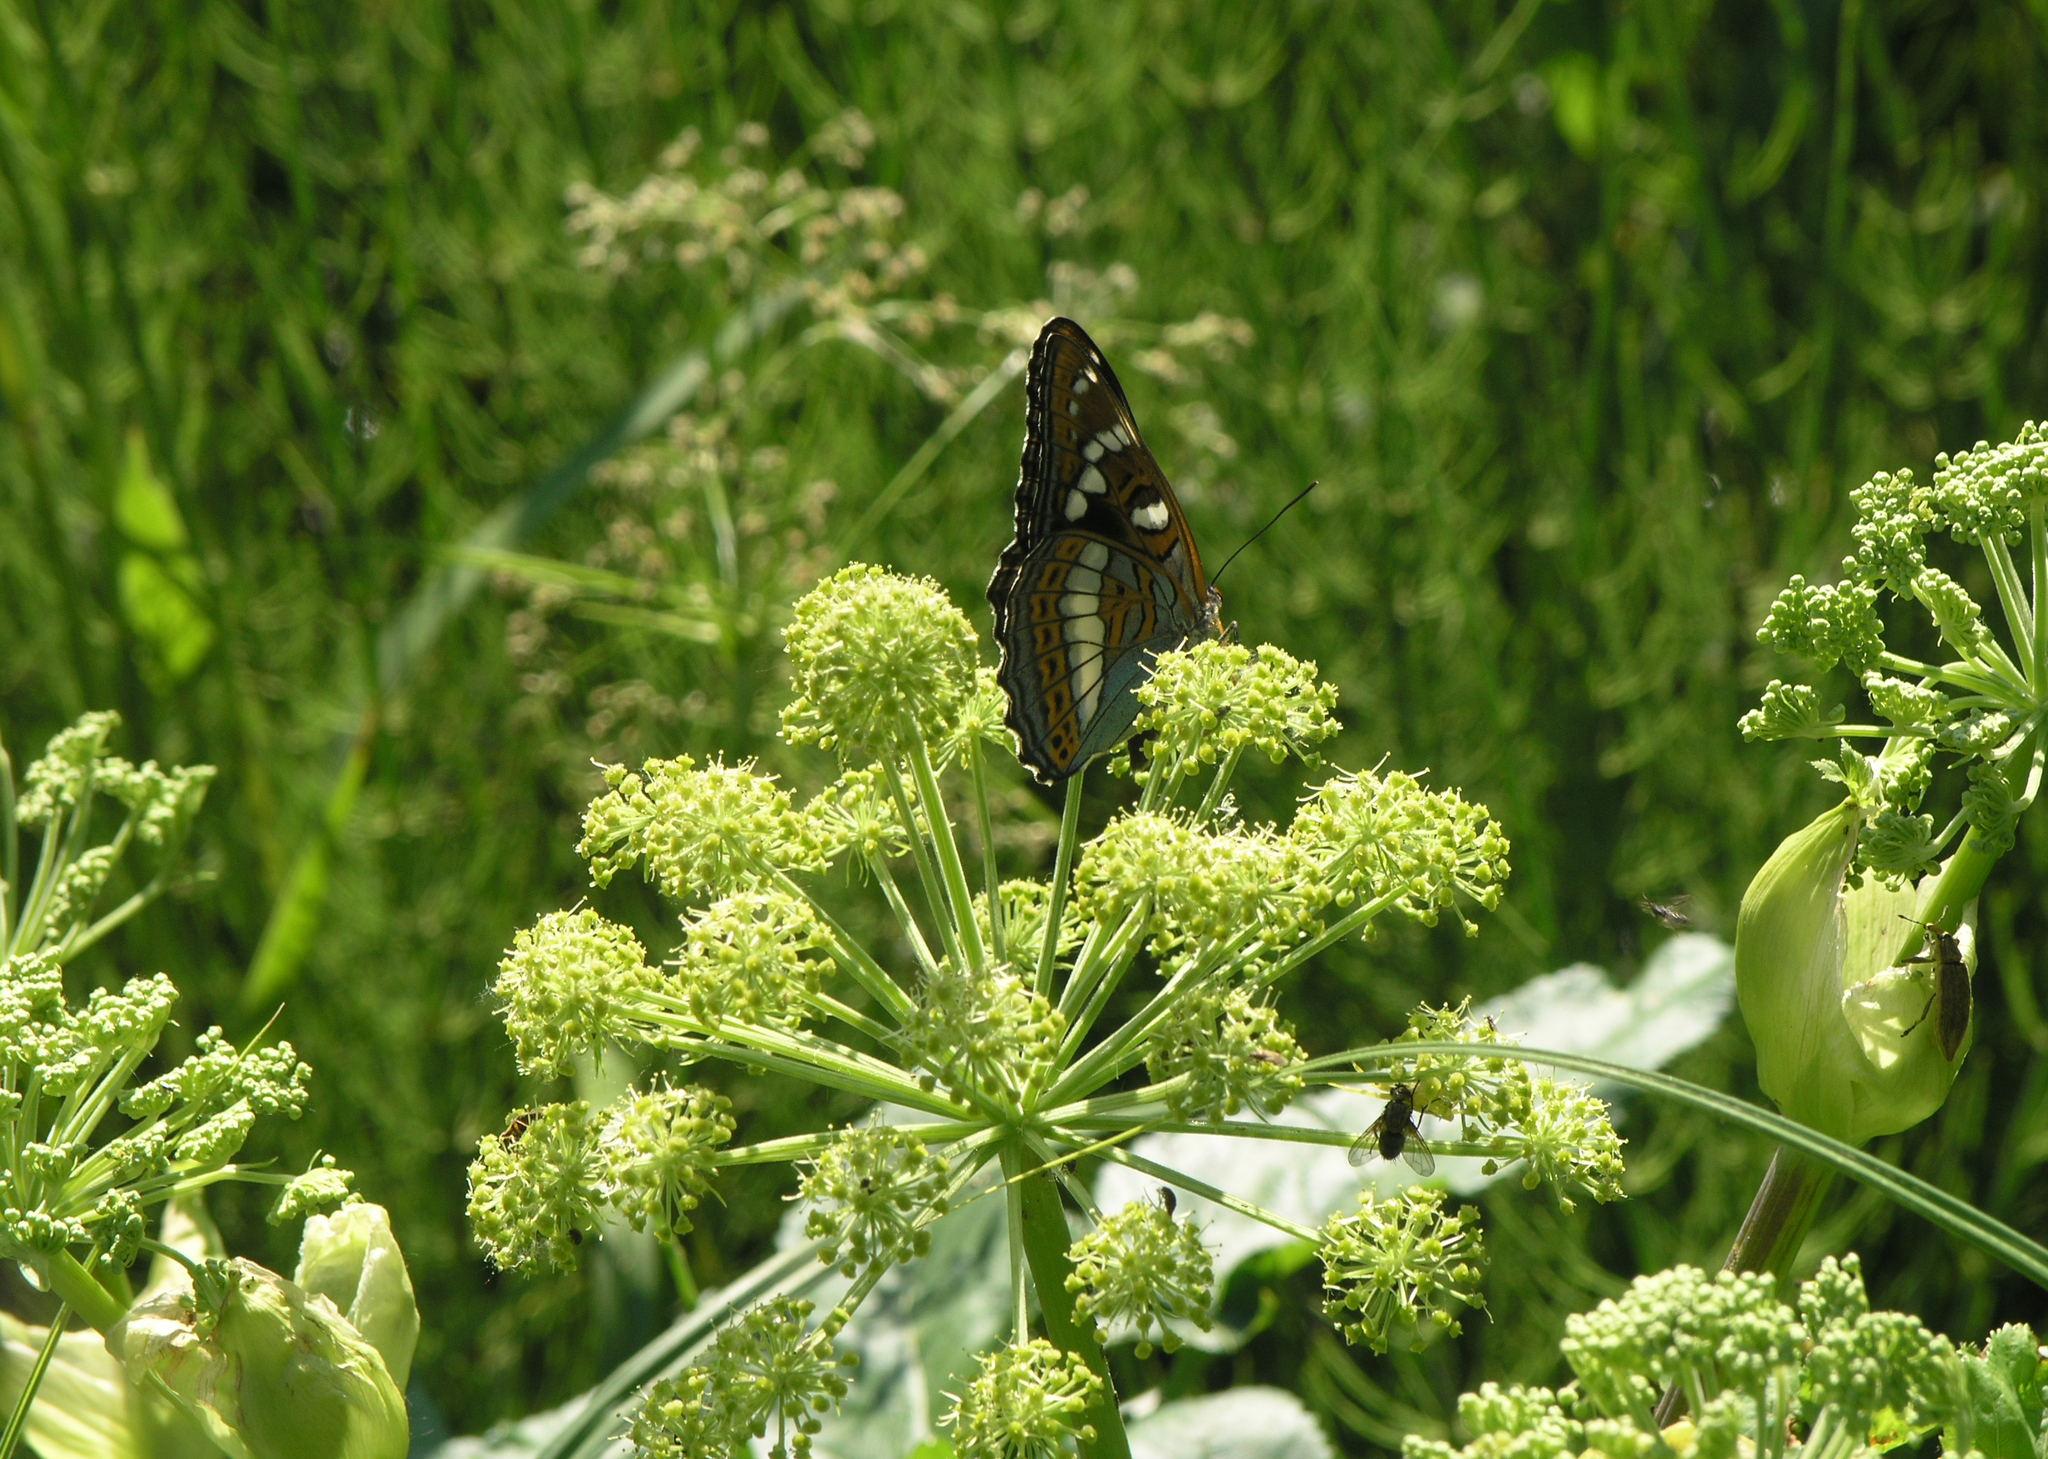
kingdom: Plantae
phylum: Tracheophyta
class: Magnoliopsida
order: Apiales
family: Apiaceae
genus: Angelica
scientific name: Angelica decurrens
